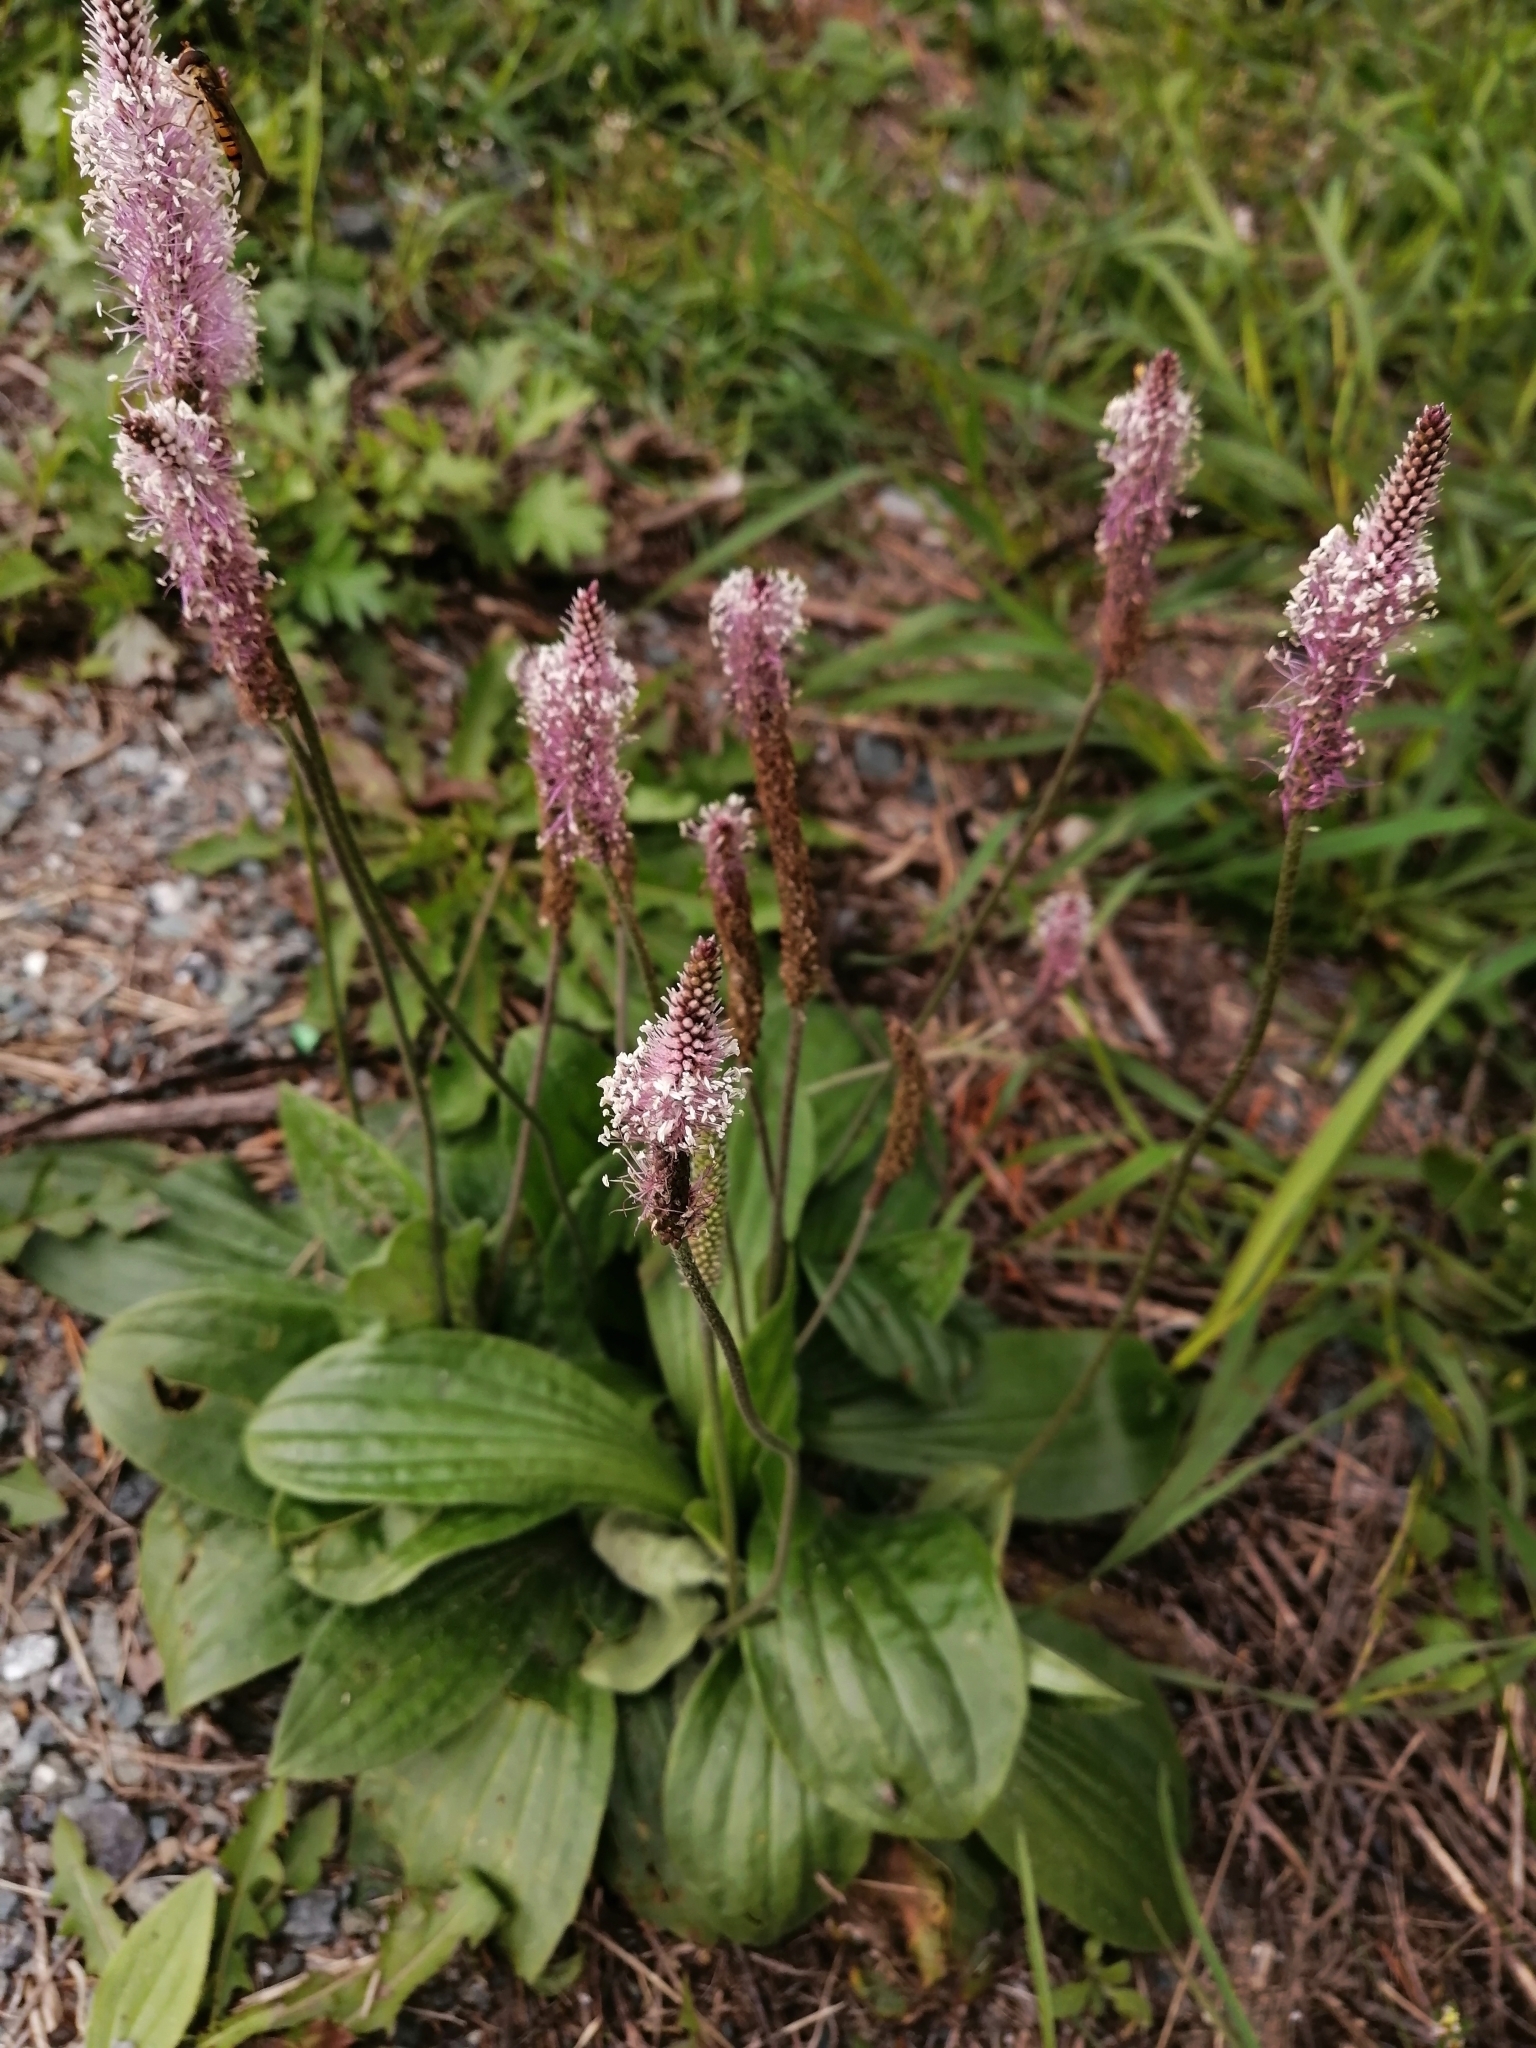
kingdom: Plantae
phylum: Tracheophyta
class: Magnoliopsida
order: Lamiales
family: Plantaginaceae
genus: Plantago
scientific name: Plantago media
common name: Hoary plantain
